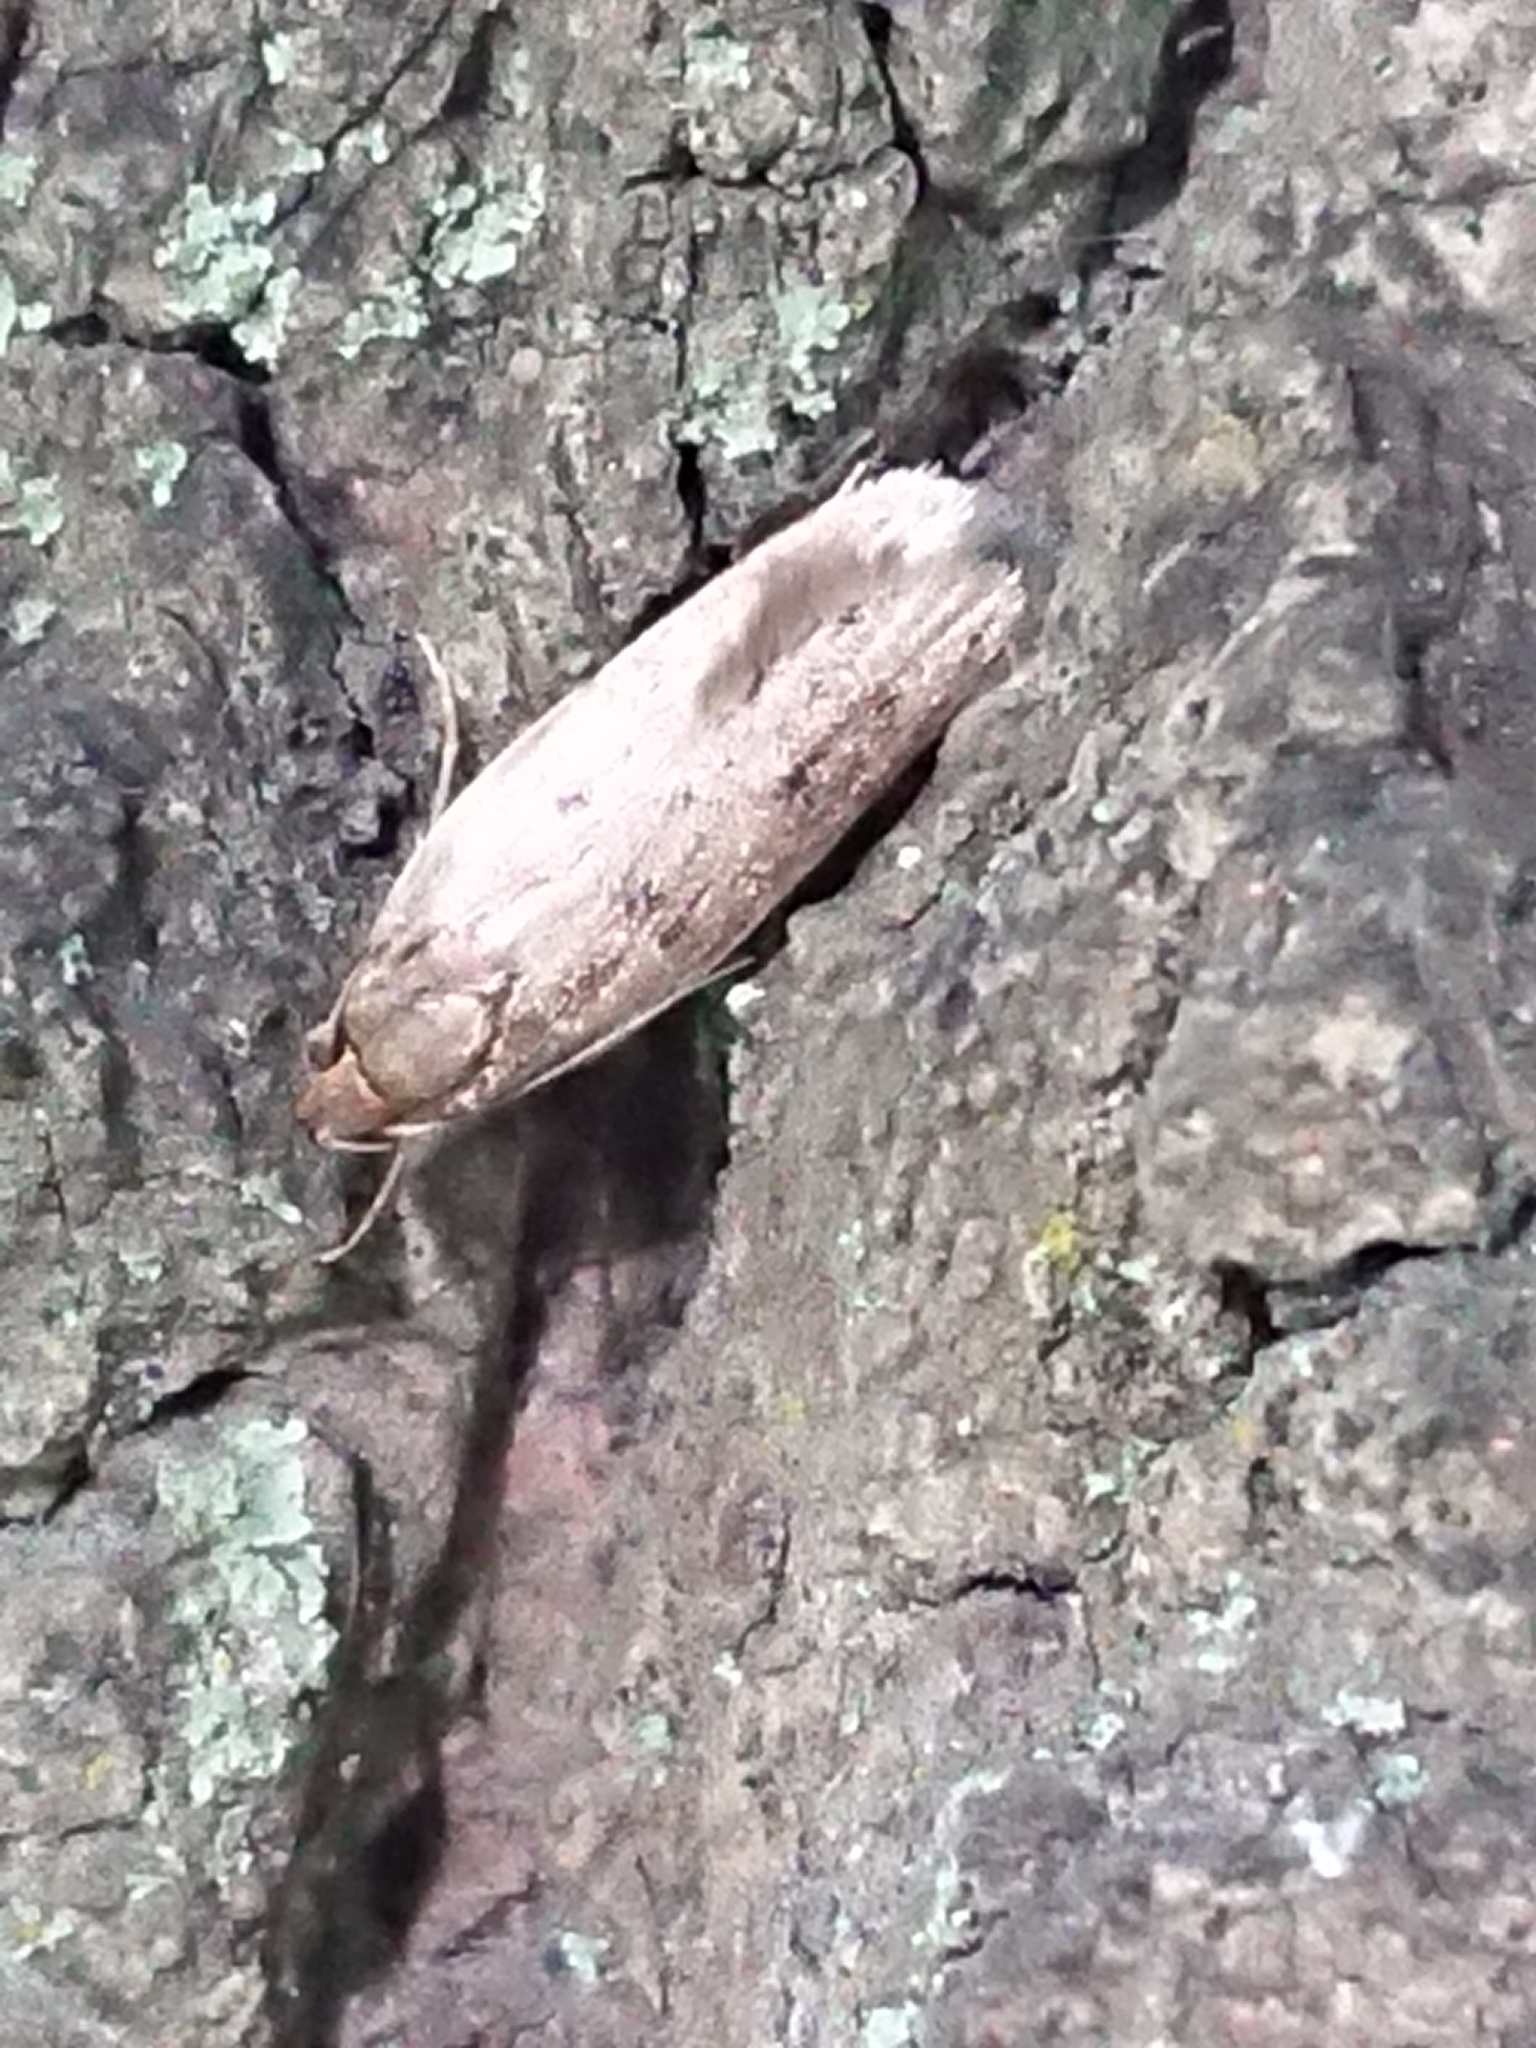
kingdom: Animalia
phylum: Arthropoda
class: Insecta
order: Lepidoptera
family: Oecophoridae
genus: Hofmannophila
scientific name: Hofmannophila pseudospretella
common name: Brown house moth
